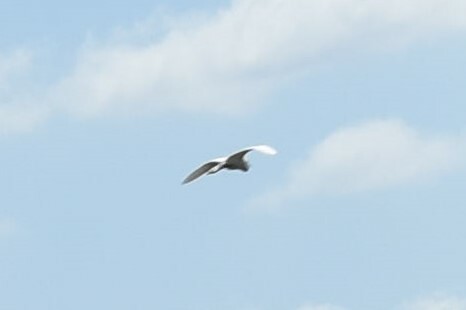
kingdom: Animalia
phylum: Chordata
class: Aves
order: Pelecaniformes
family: Ardeidae
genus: Egretta
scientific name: Egretta
